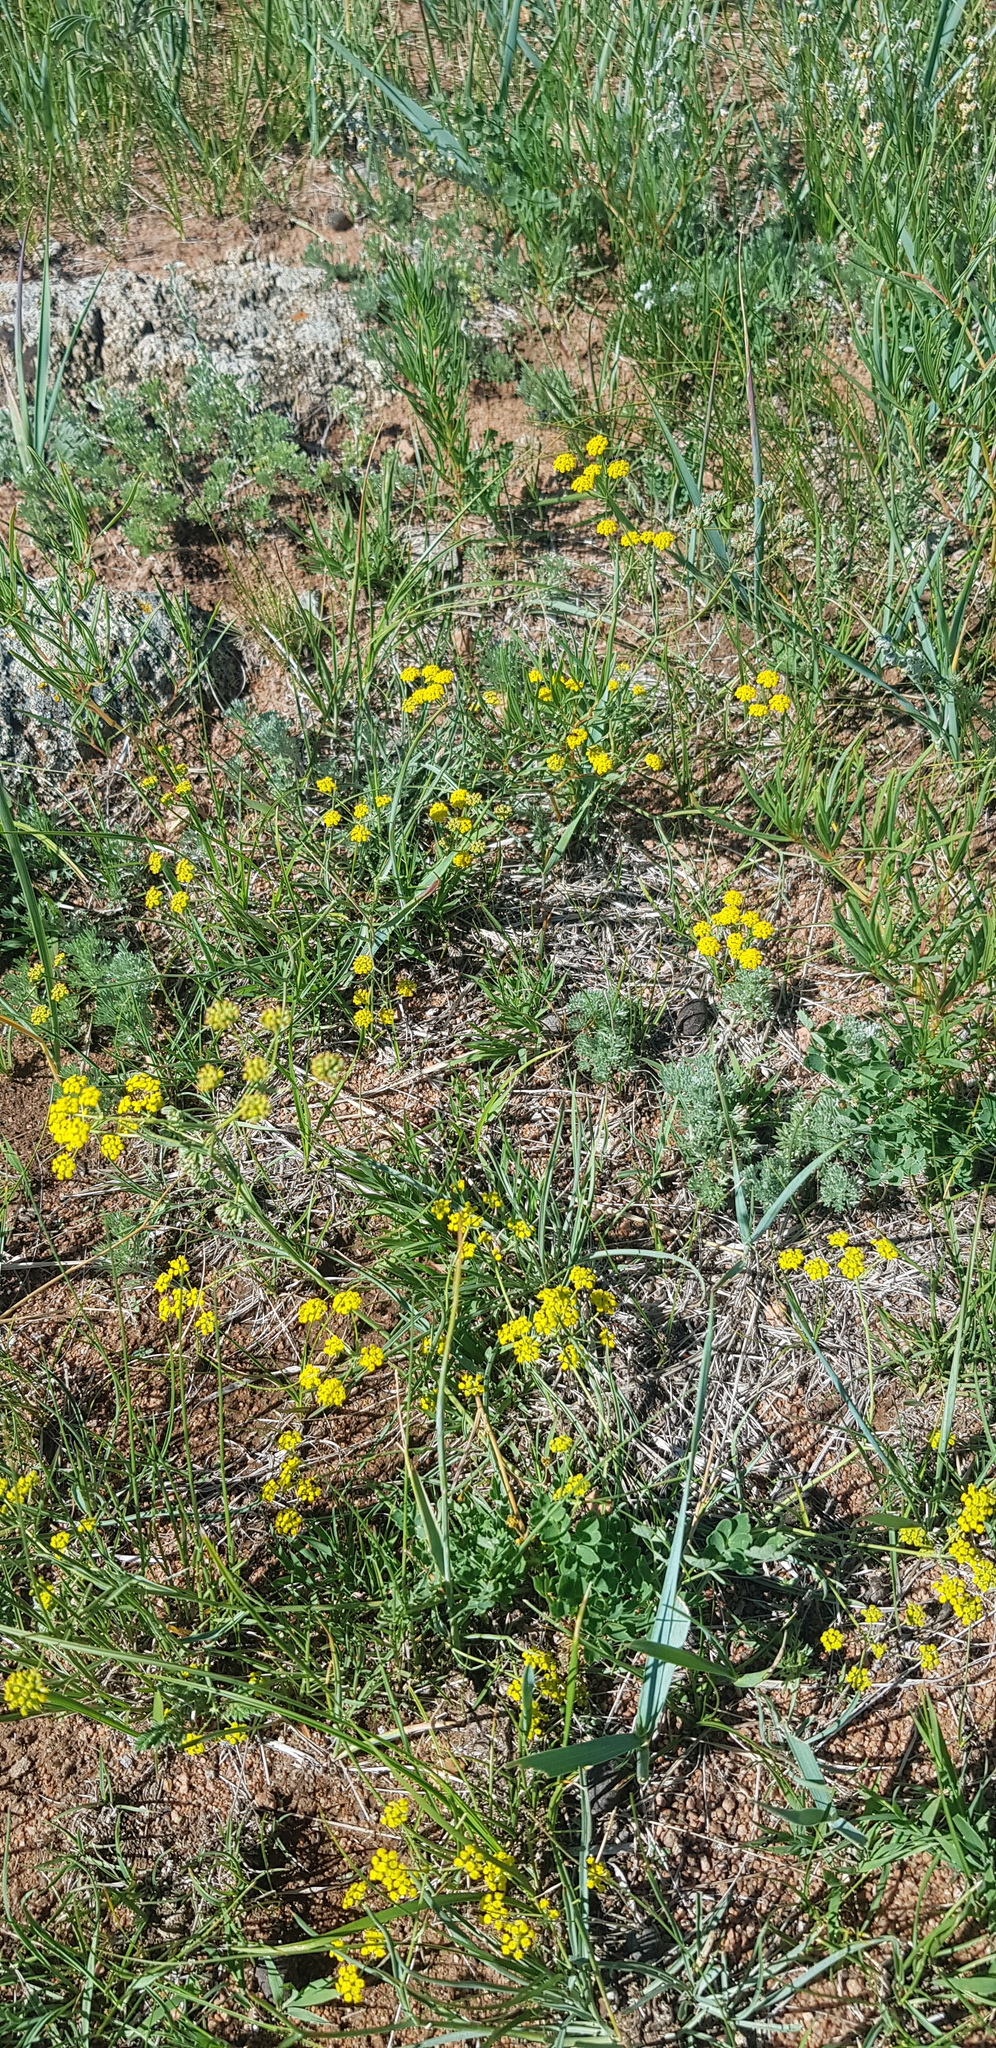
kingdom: Plantae
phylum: Tracheophyta
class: Magnoliopsida
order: Apiales
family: Apiaceae
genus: Bupleurum
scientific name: Bupleurum bicaule
